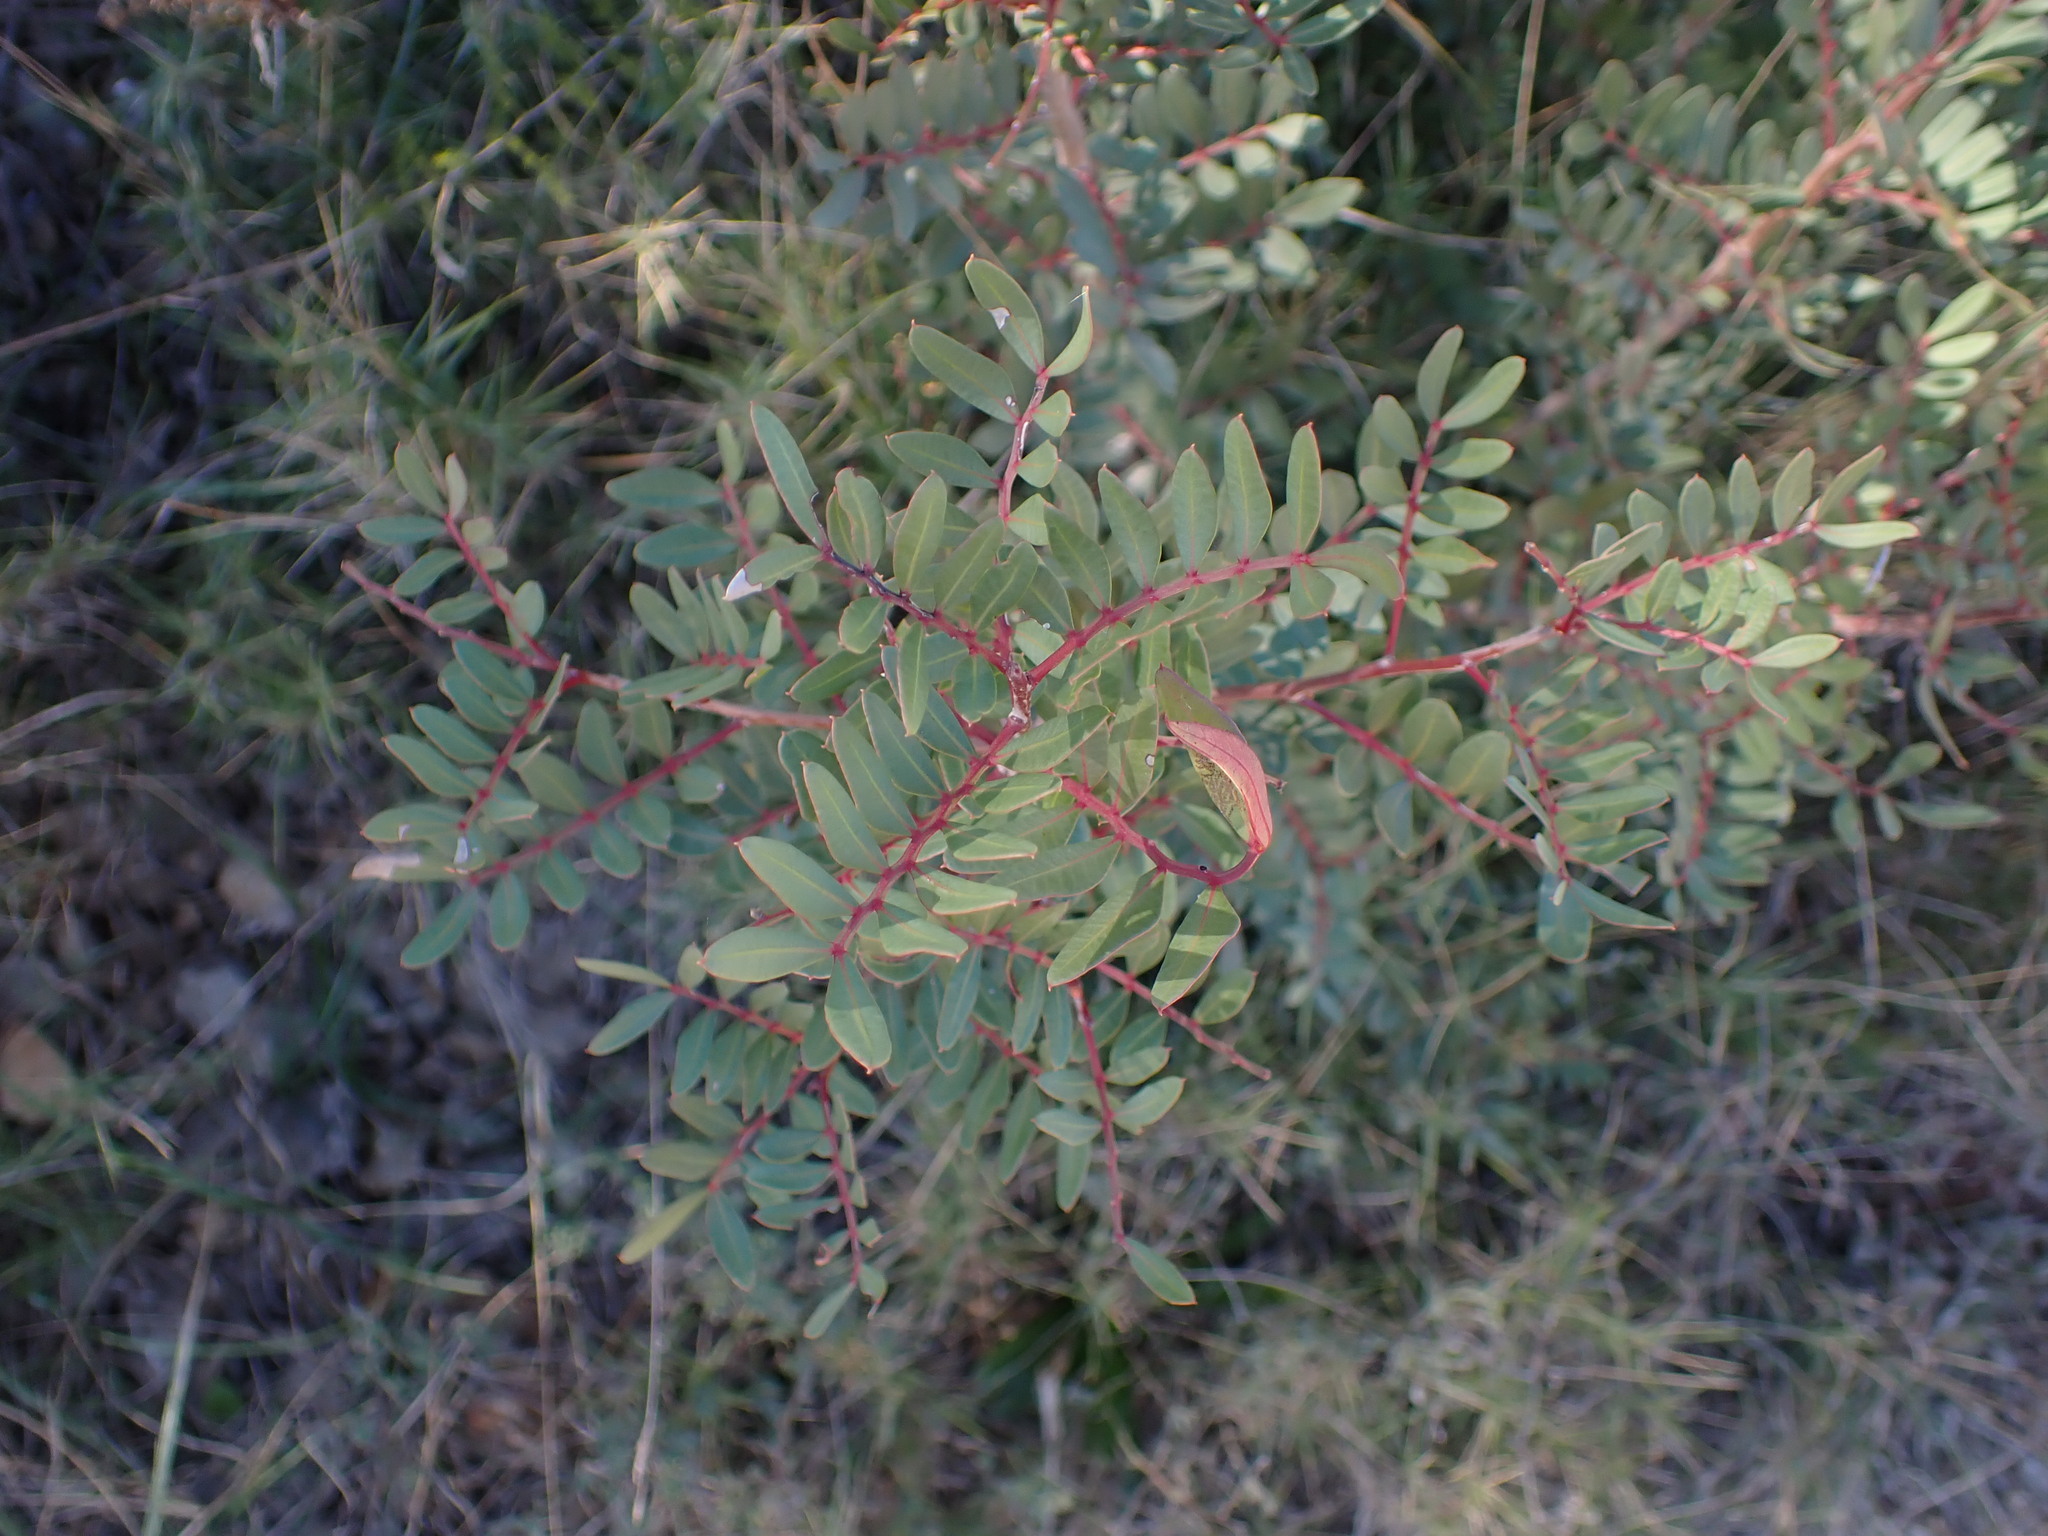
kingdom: Plantae
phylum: Tracheophyta
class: Magnoliopsida
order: Sapindales
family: Anacardiaceae
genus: Pistacia
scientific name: Pistacia lentiscus
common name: Lentisk
